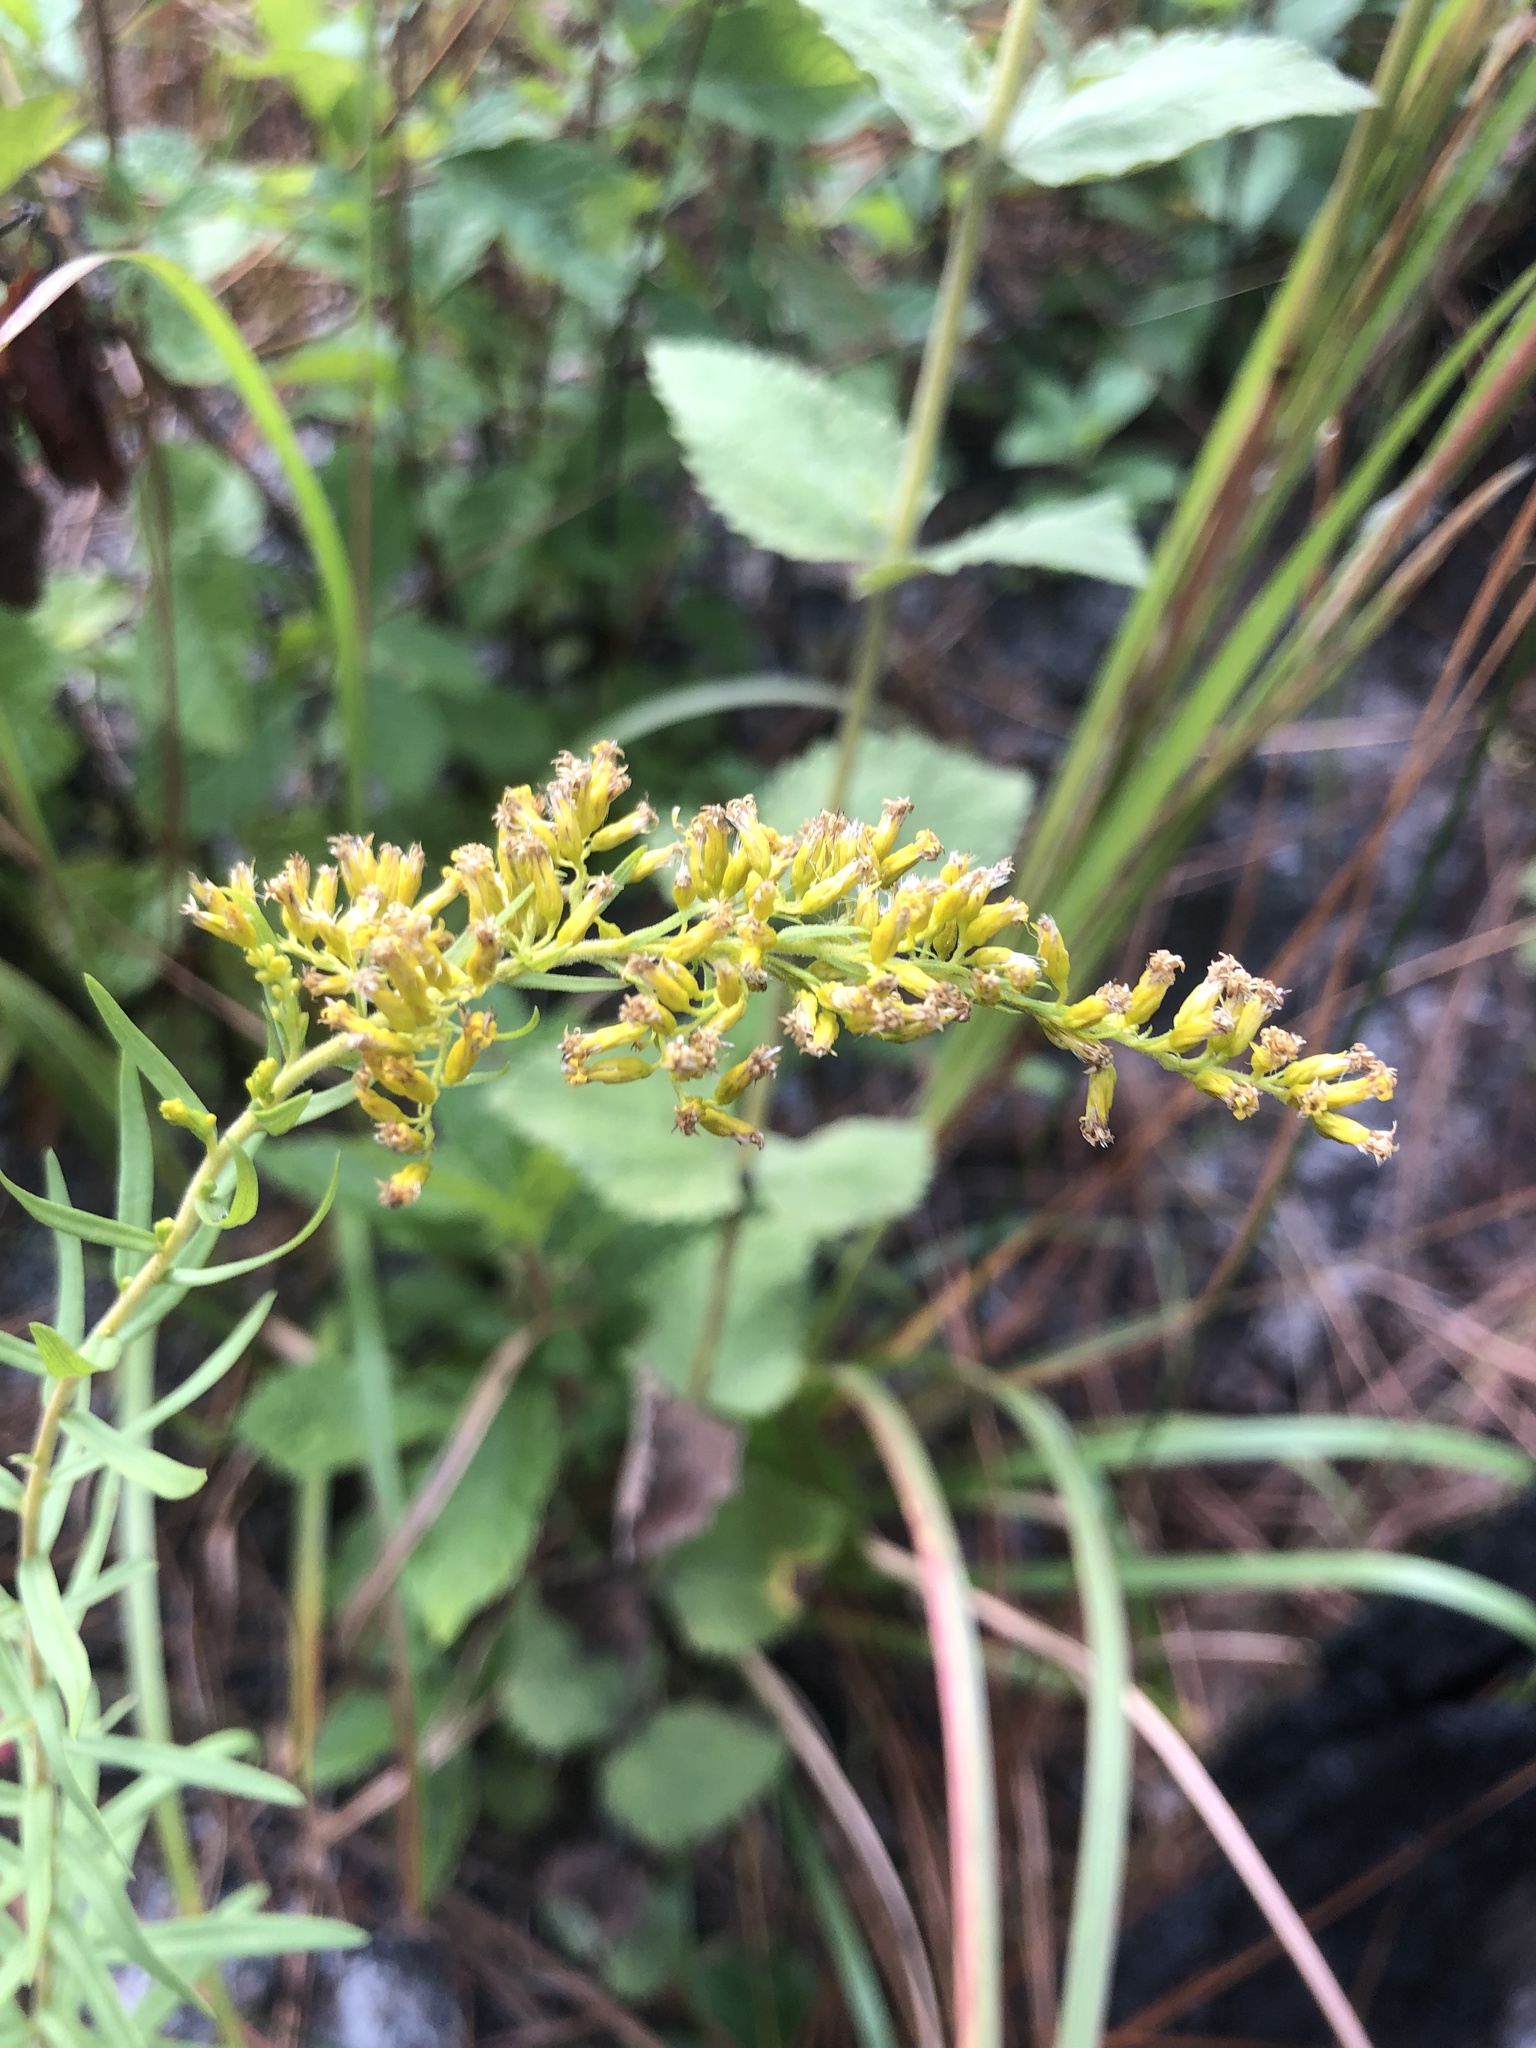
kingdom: Plantae
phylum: Tracheophyta
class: Magnoliopsida
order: Asterales
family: Asteraceae
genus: Solidago
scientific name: Solidago tortifolia
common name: Twisted-leaf goldenrod
